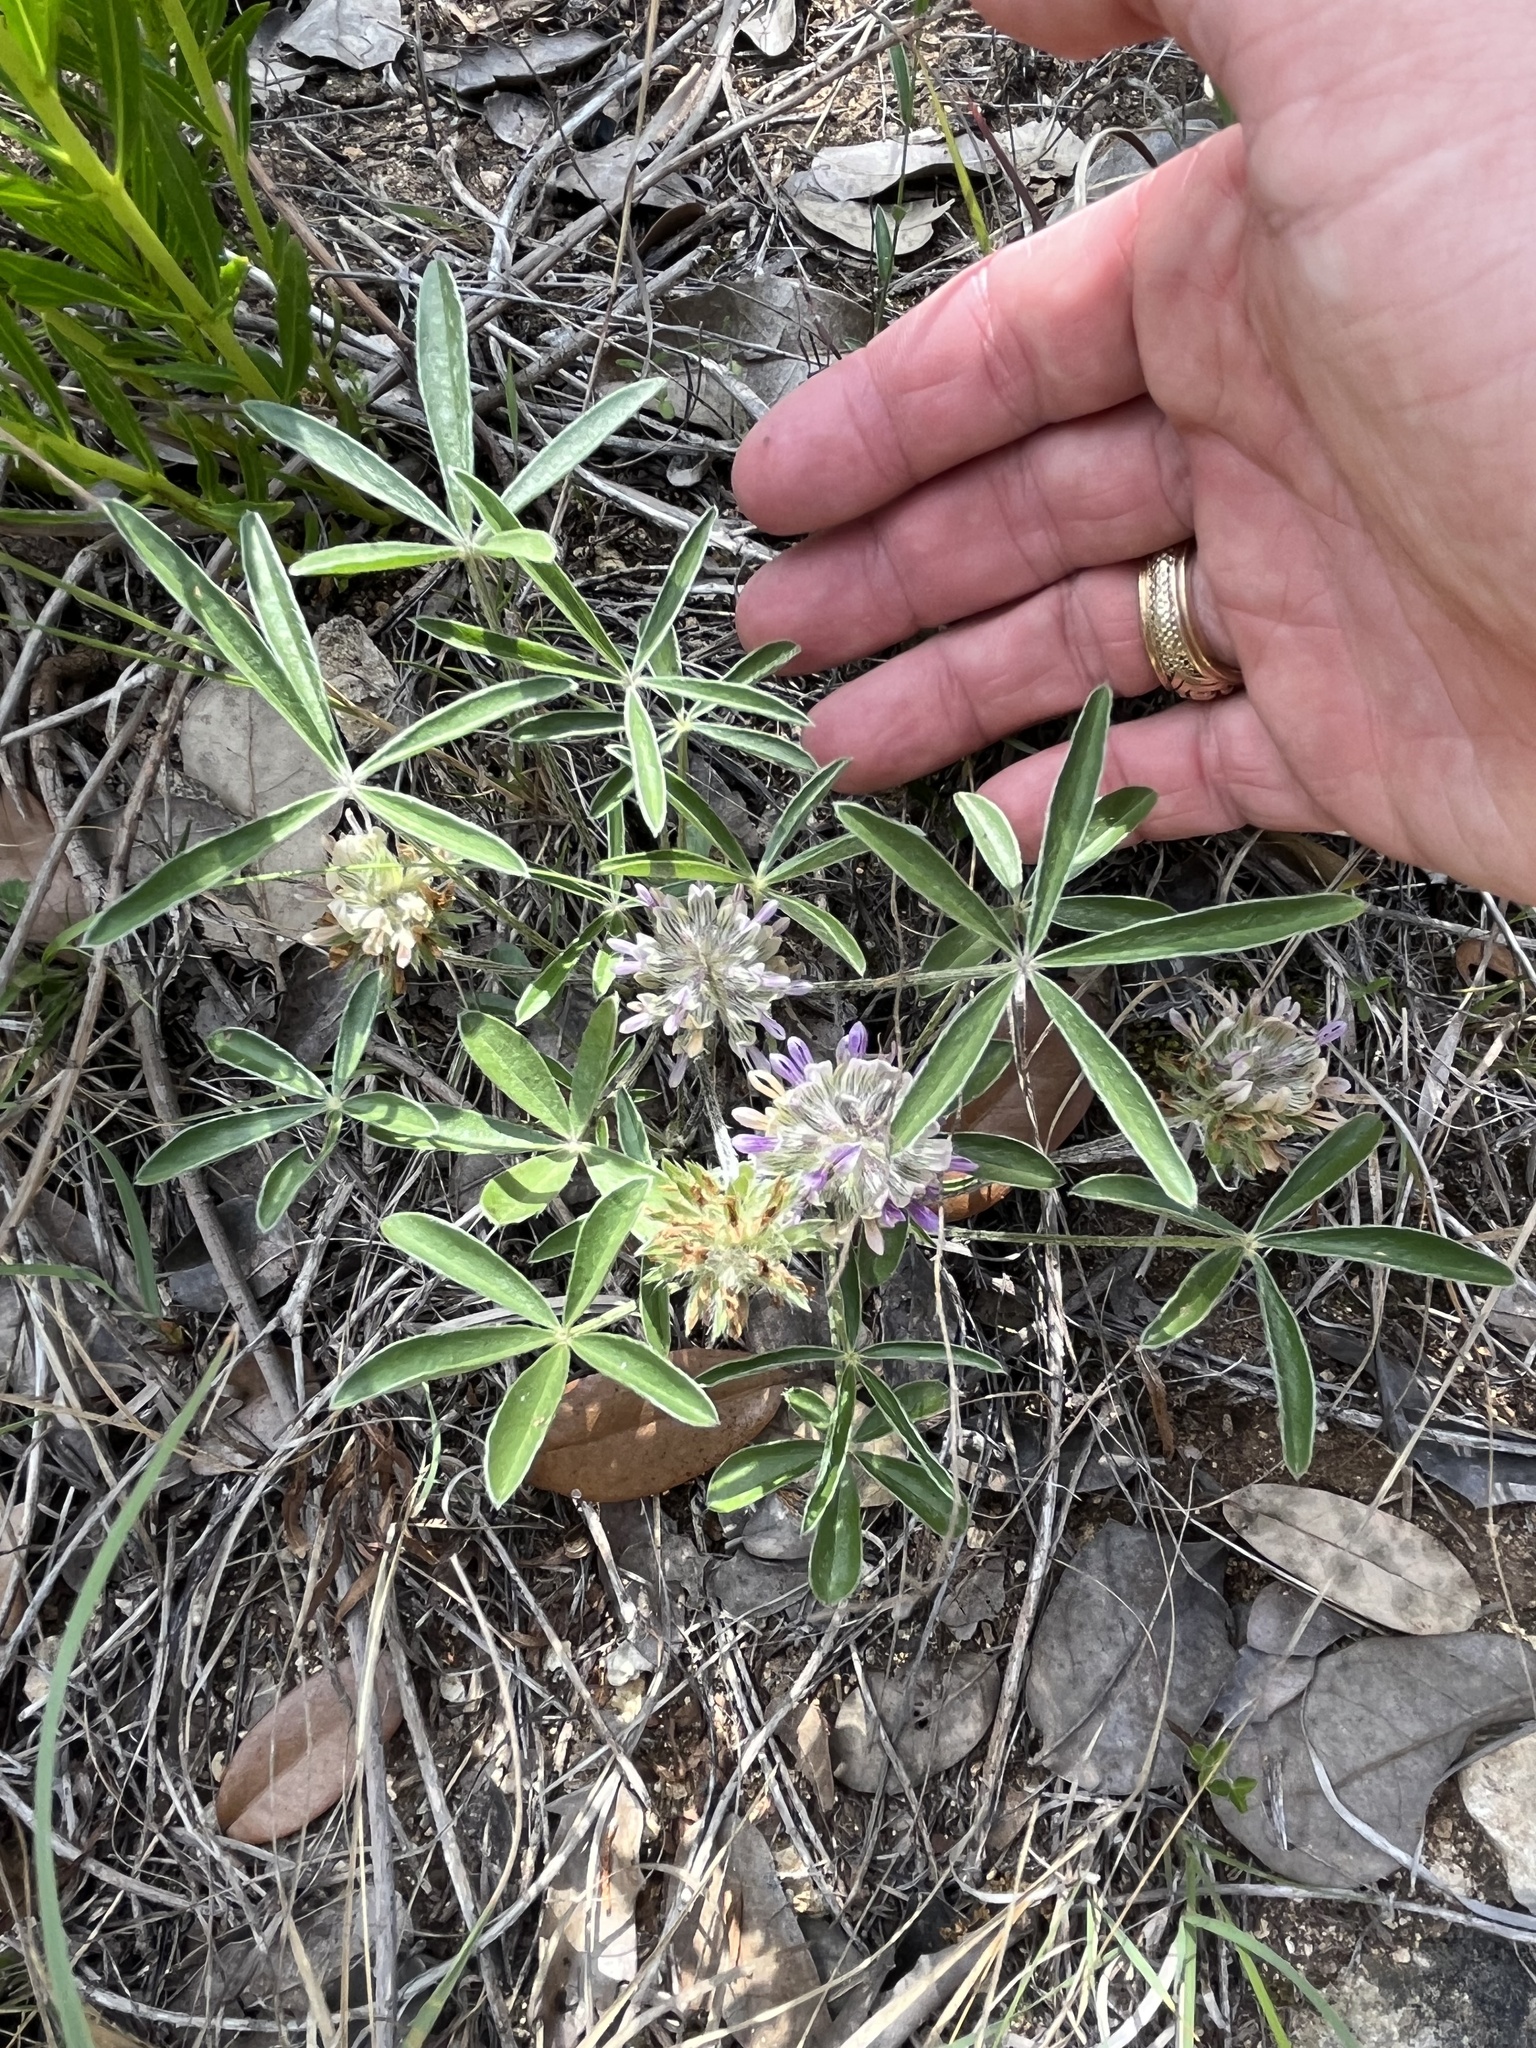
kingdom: Plantae
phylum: Tracheophyta
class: Magnoliopsida
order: Fabales
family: Fabaceae
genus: Pediomelum
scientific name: Pediomelum hypogaeum
